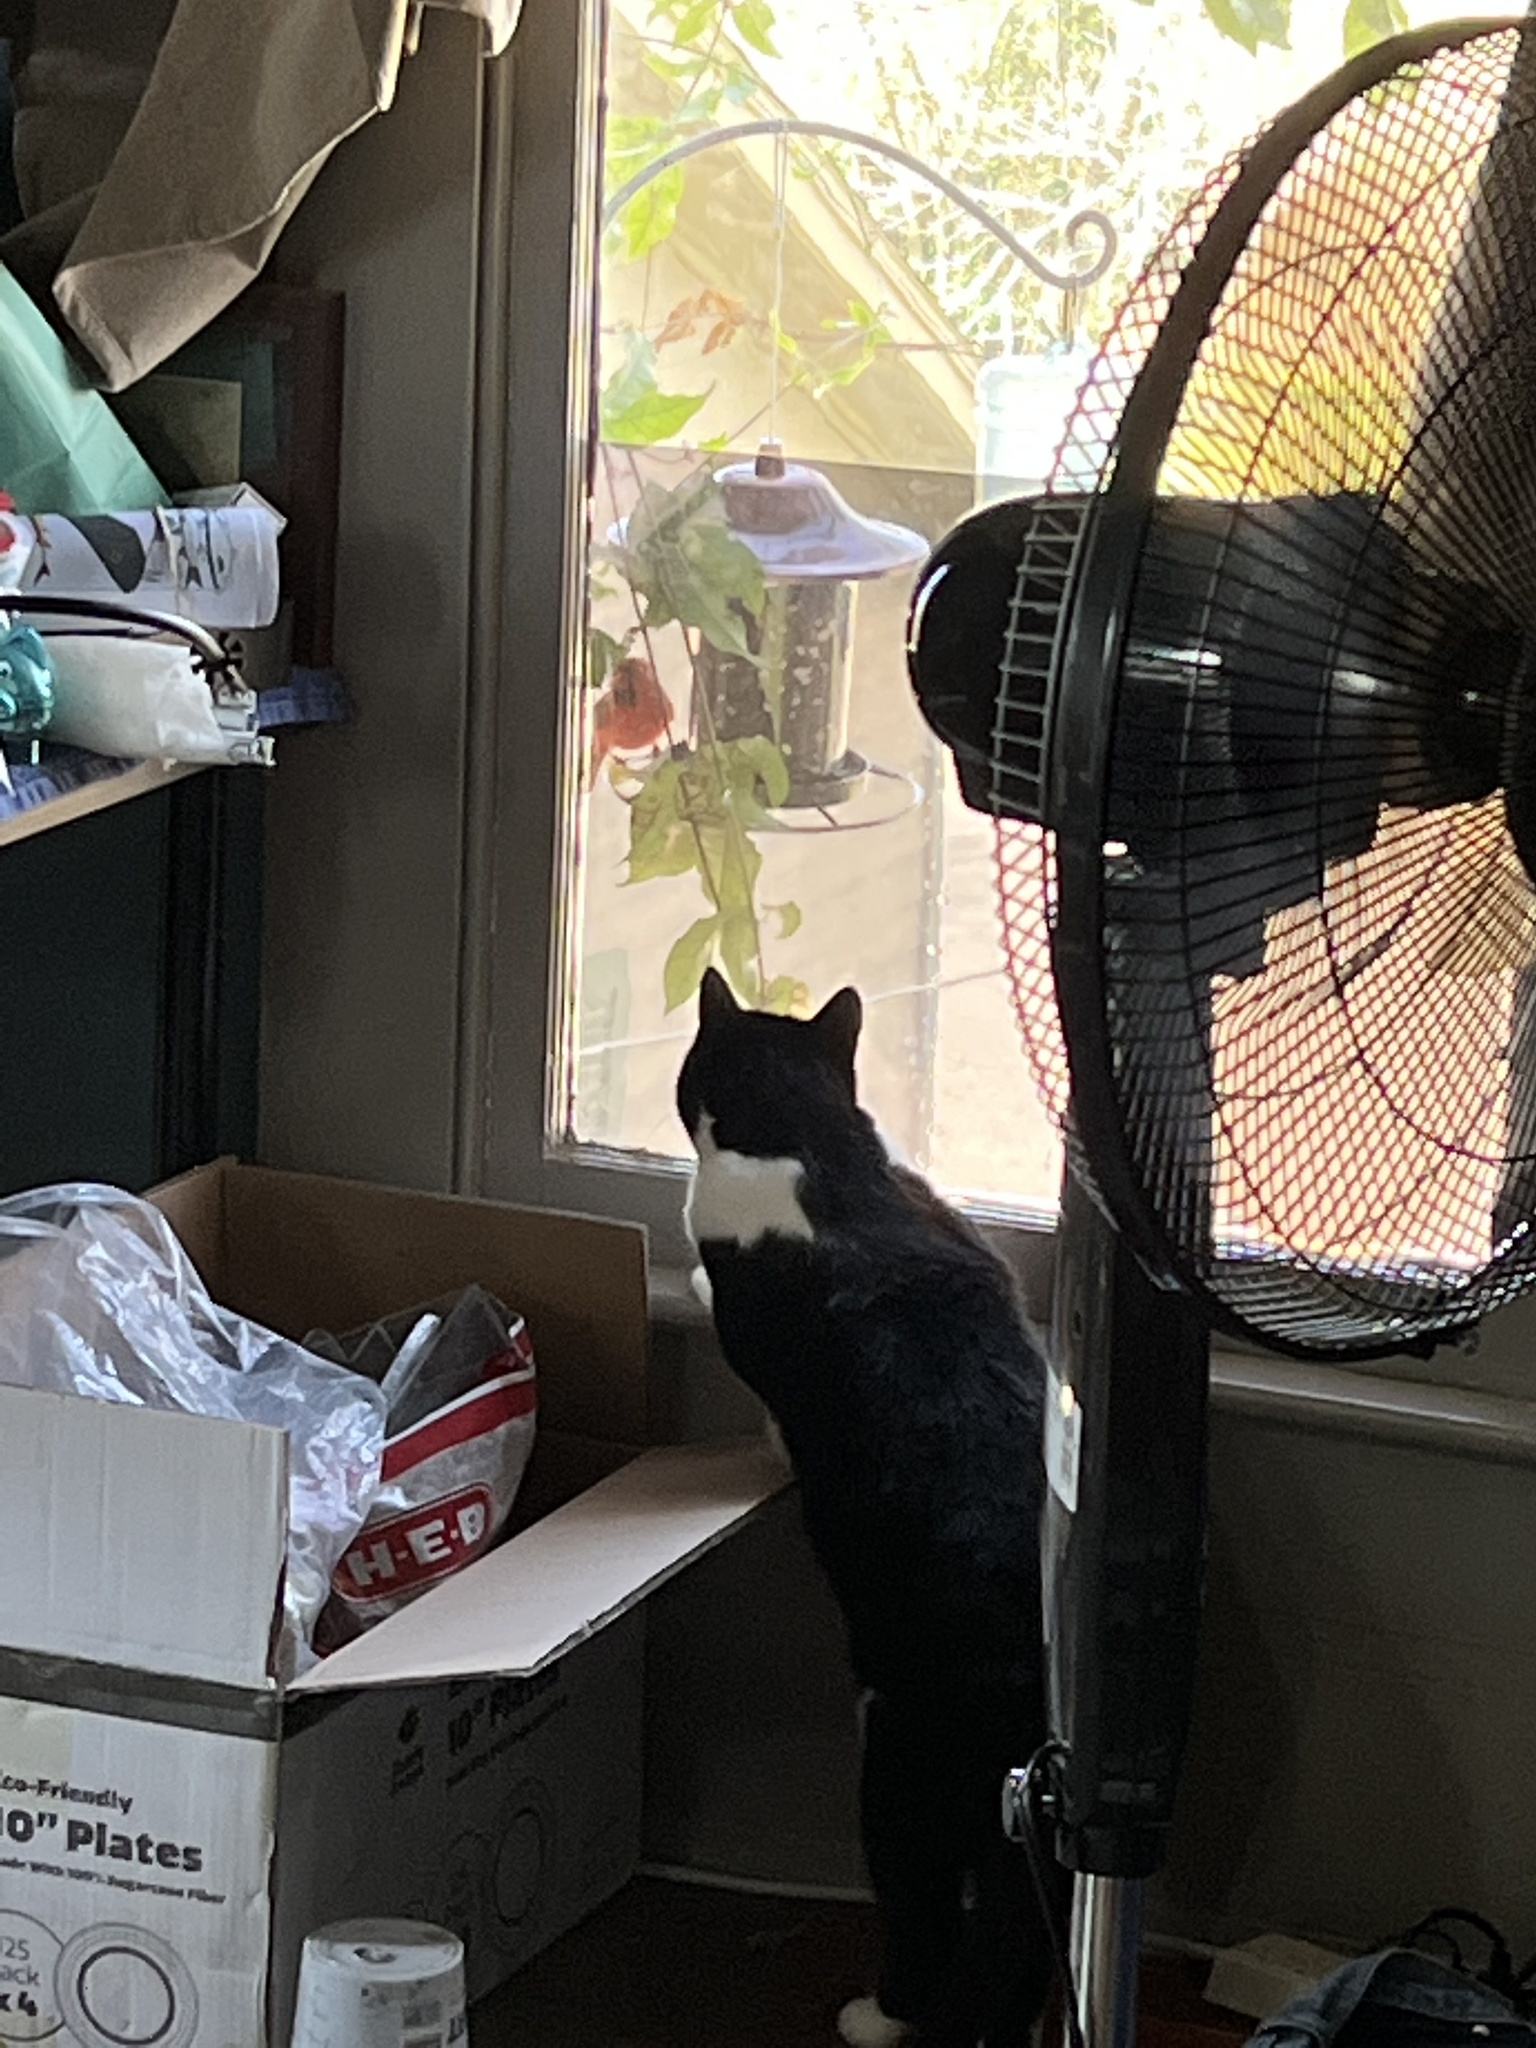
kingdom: Animalia
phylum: Chordata
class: Aves
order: Passeriformes
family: Cardinalidae
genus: Cardinalis
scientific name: Cardinalis cardinalis
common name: Northern cardinal
